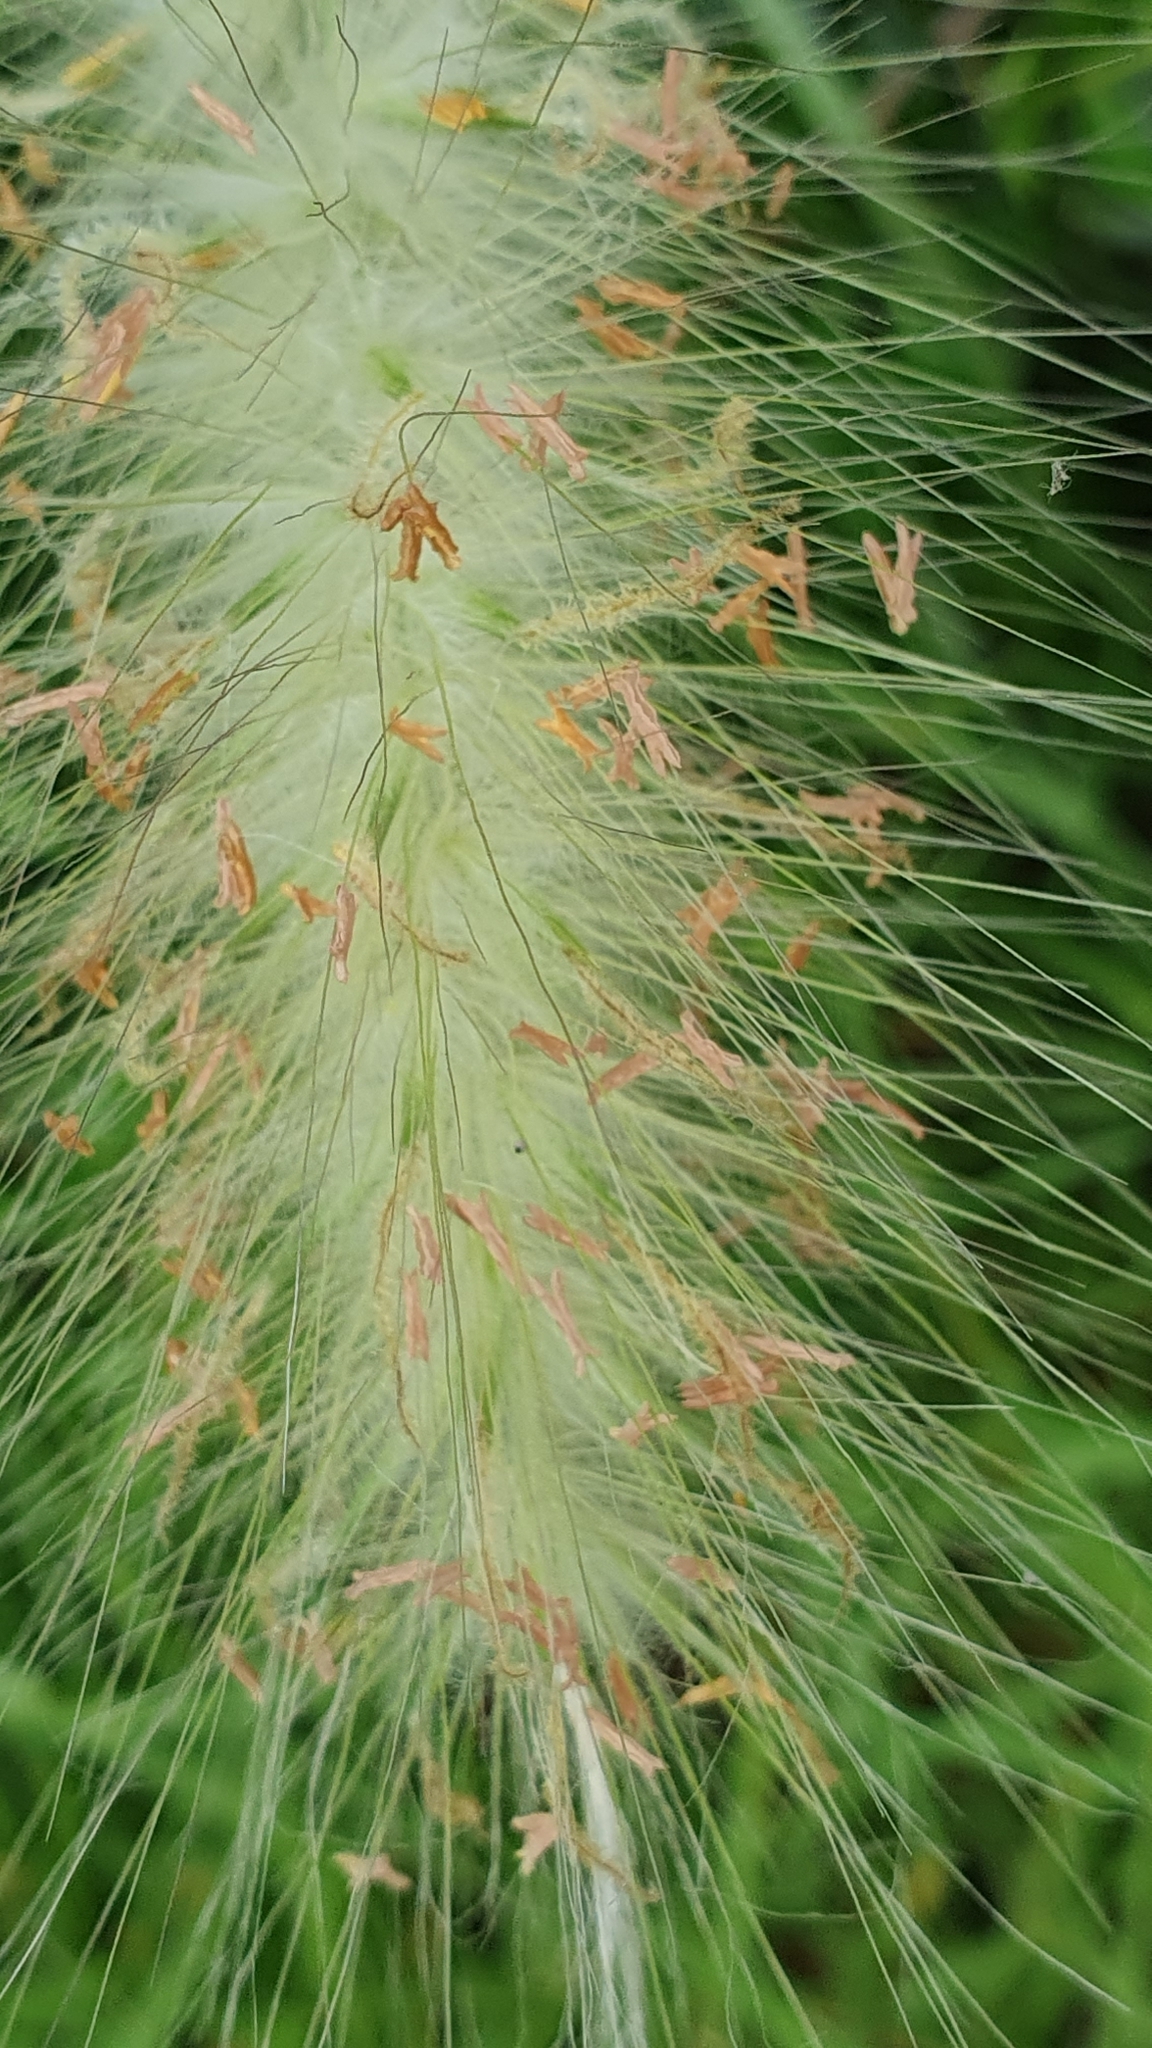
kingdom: Plantae
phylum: Tracheophyta
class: Liliopsida
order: Poales
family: Poaceae
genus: Cenchrus
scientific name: Cenchrus longisetus
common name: Feathertop
